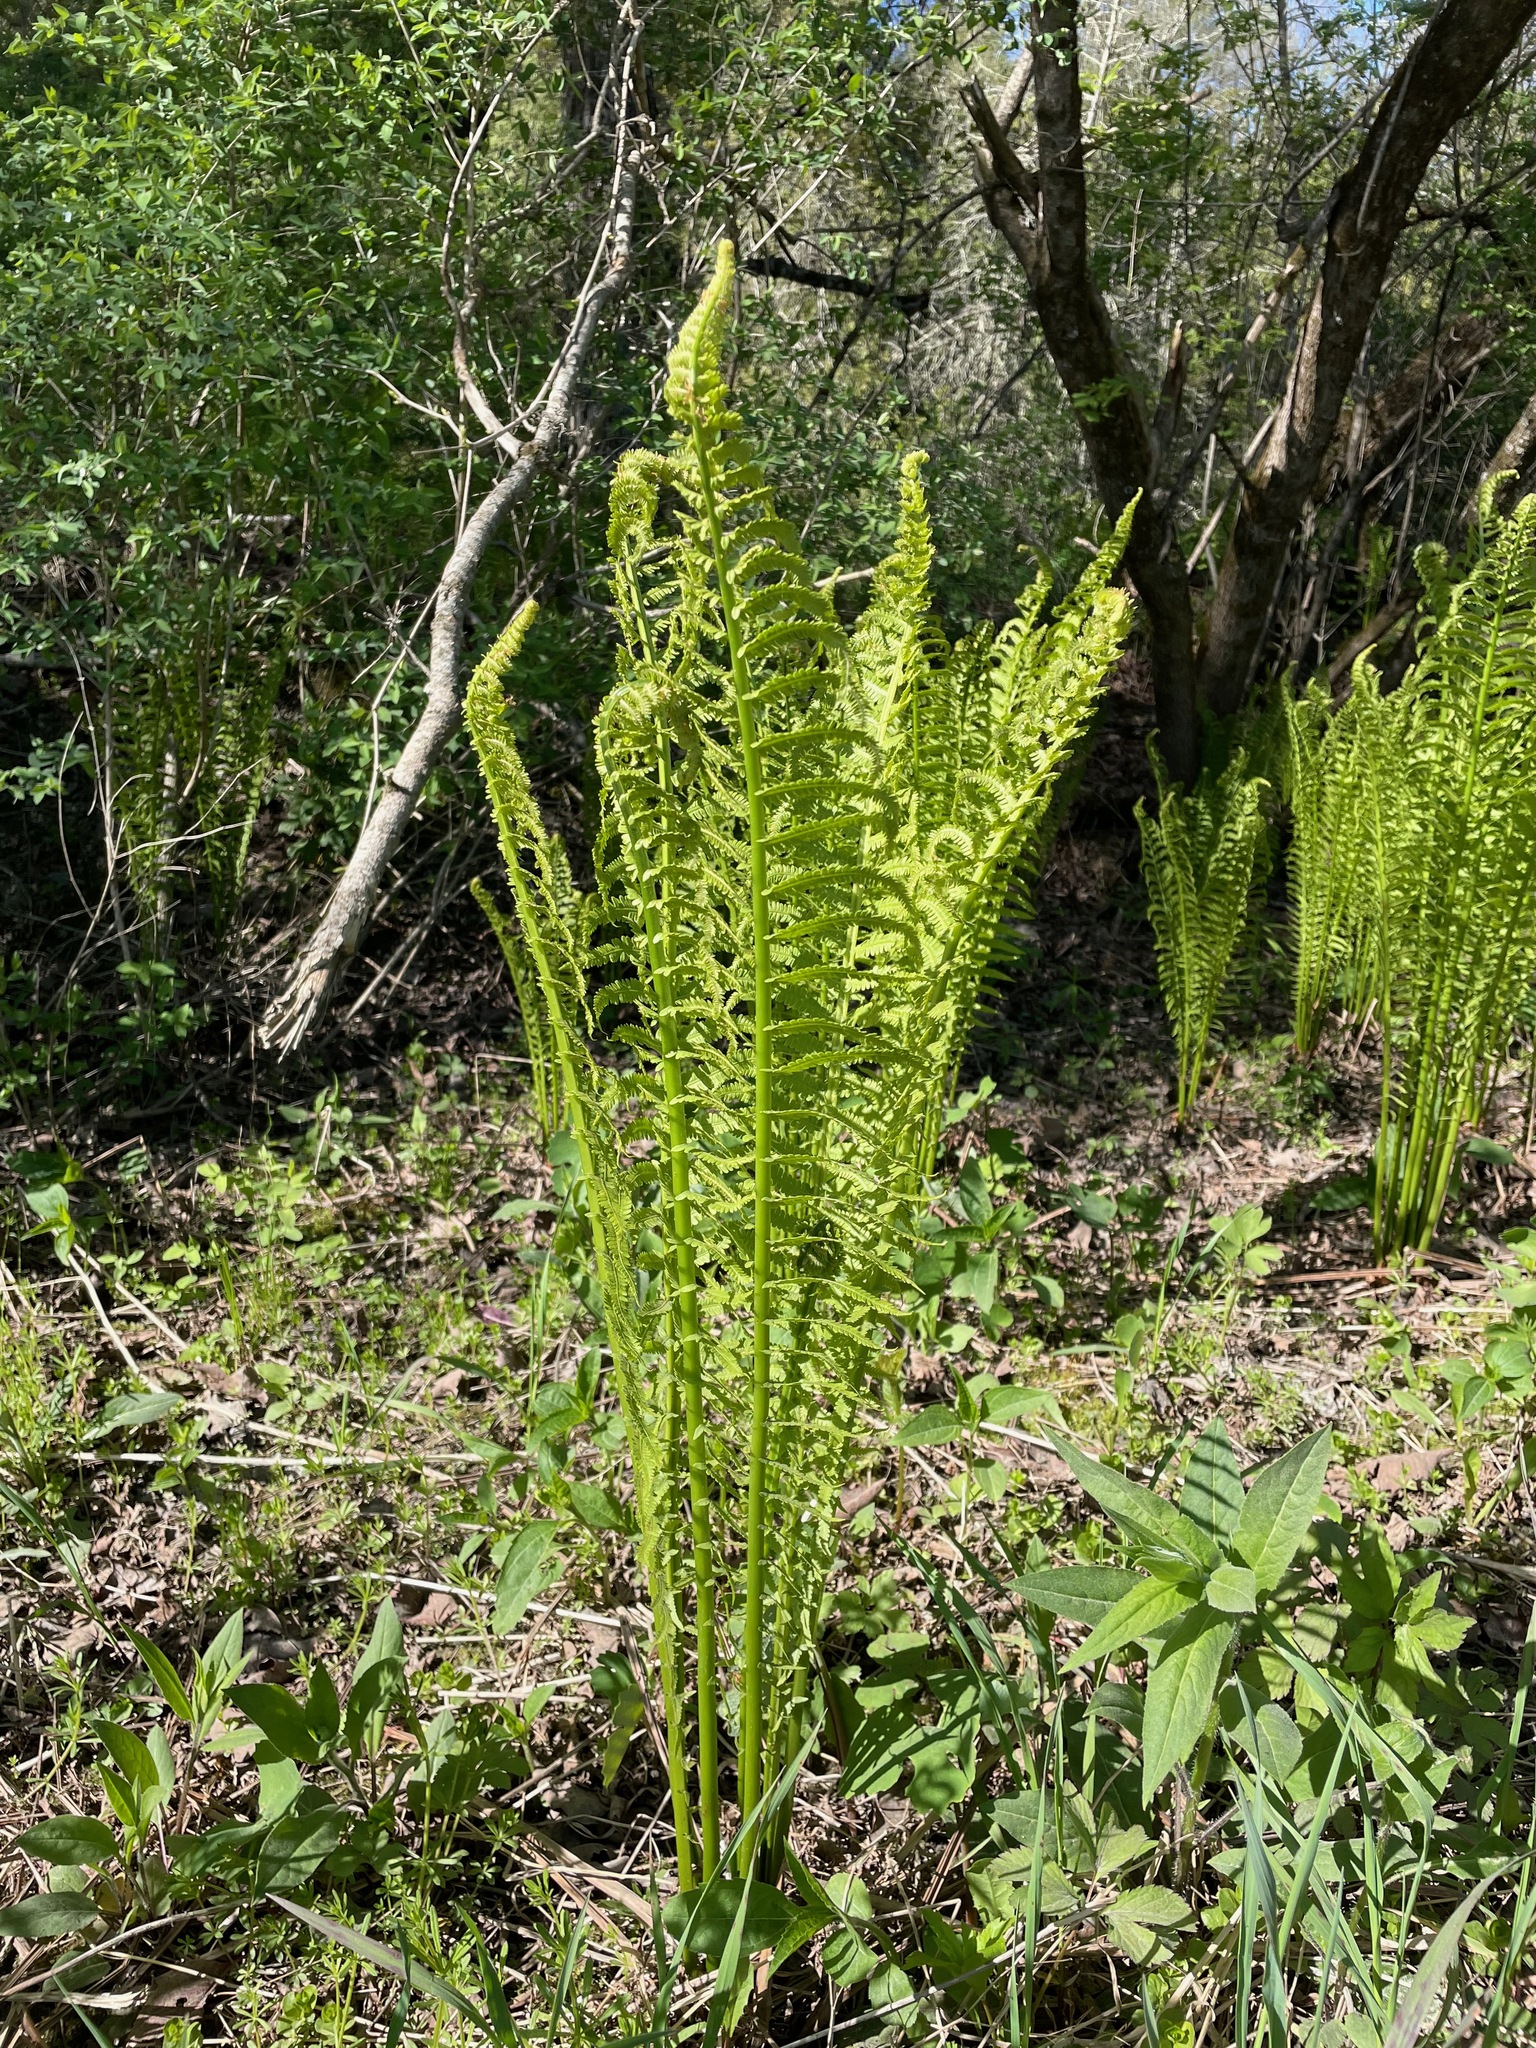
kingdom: Plantae
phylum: Tracheophyta
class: Polypodiopsida
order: Polypodiales
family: Onocleaceae
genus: Matteuccia
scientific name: Matteuccia struthiopteris
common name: Ostrich fern
